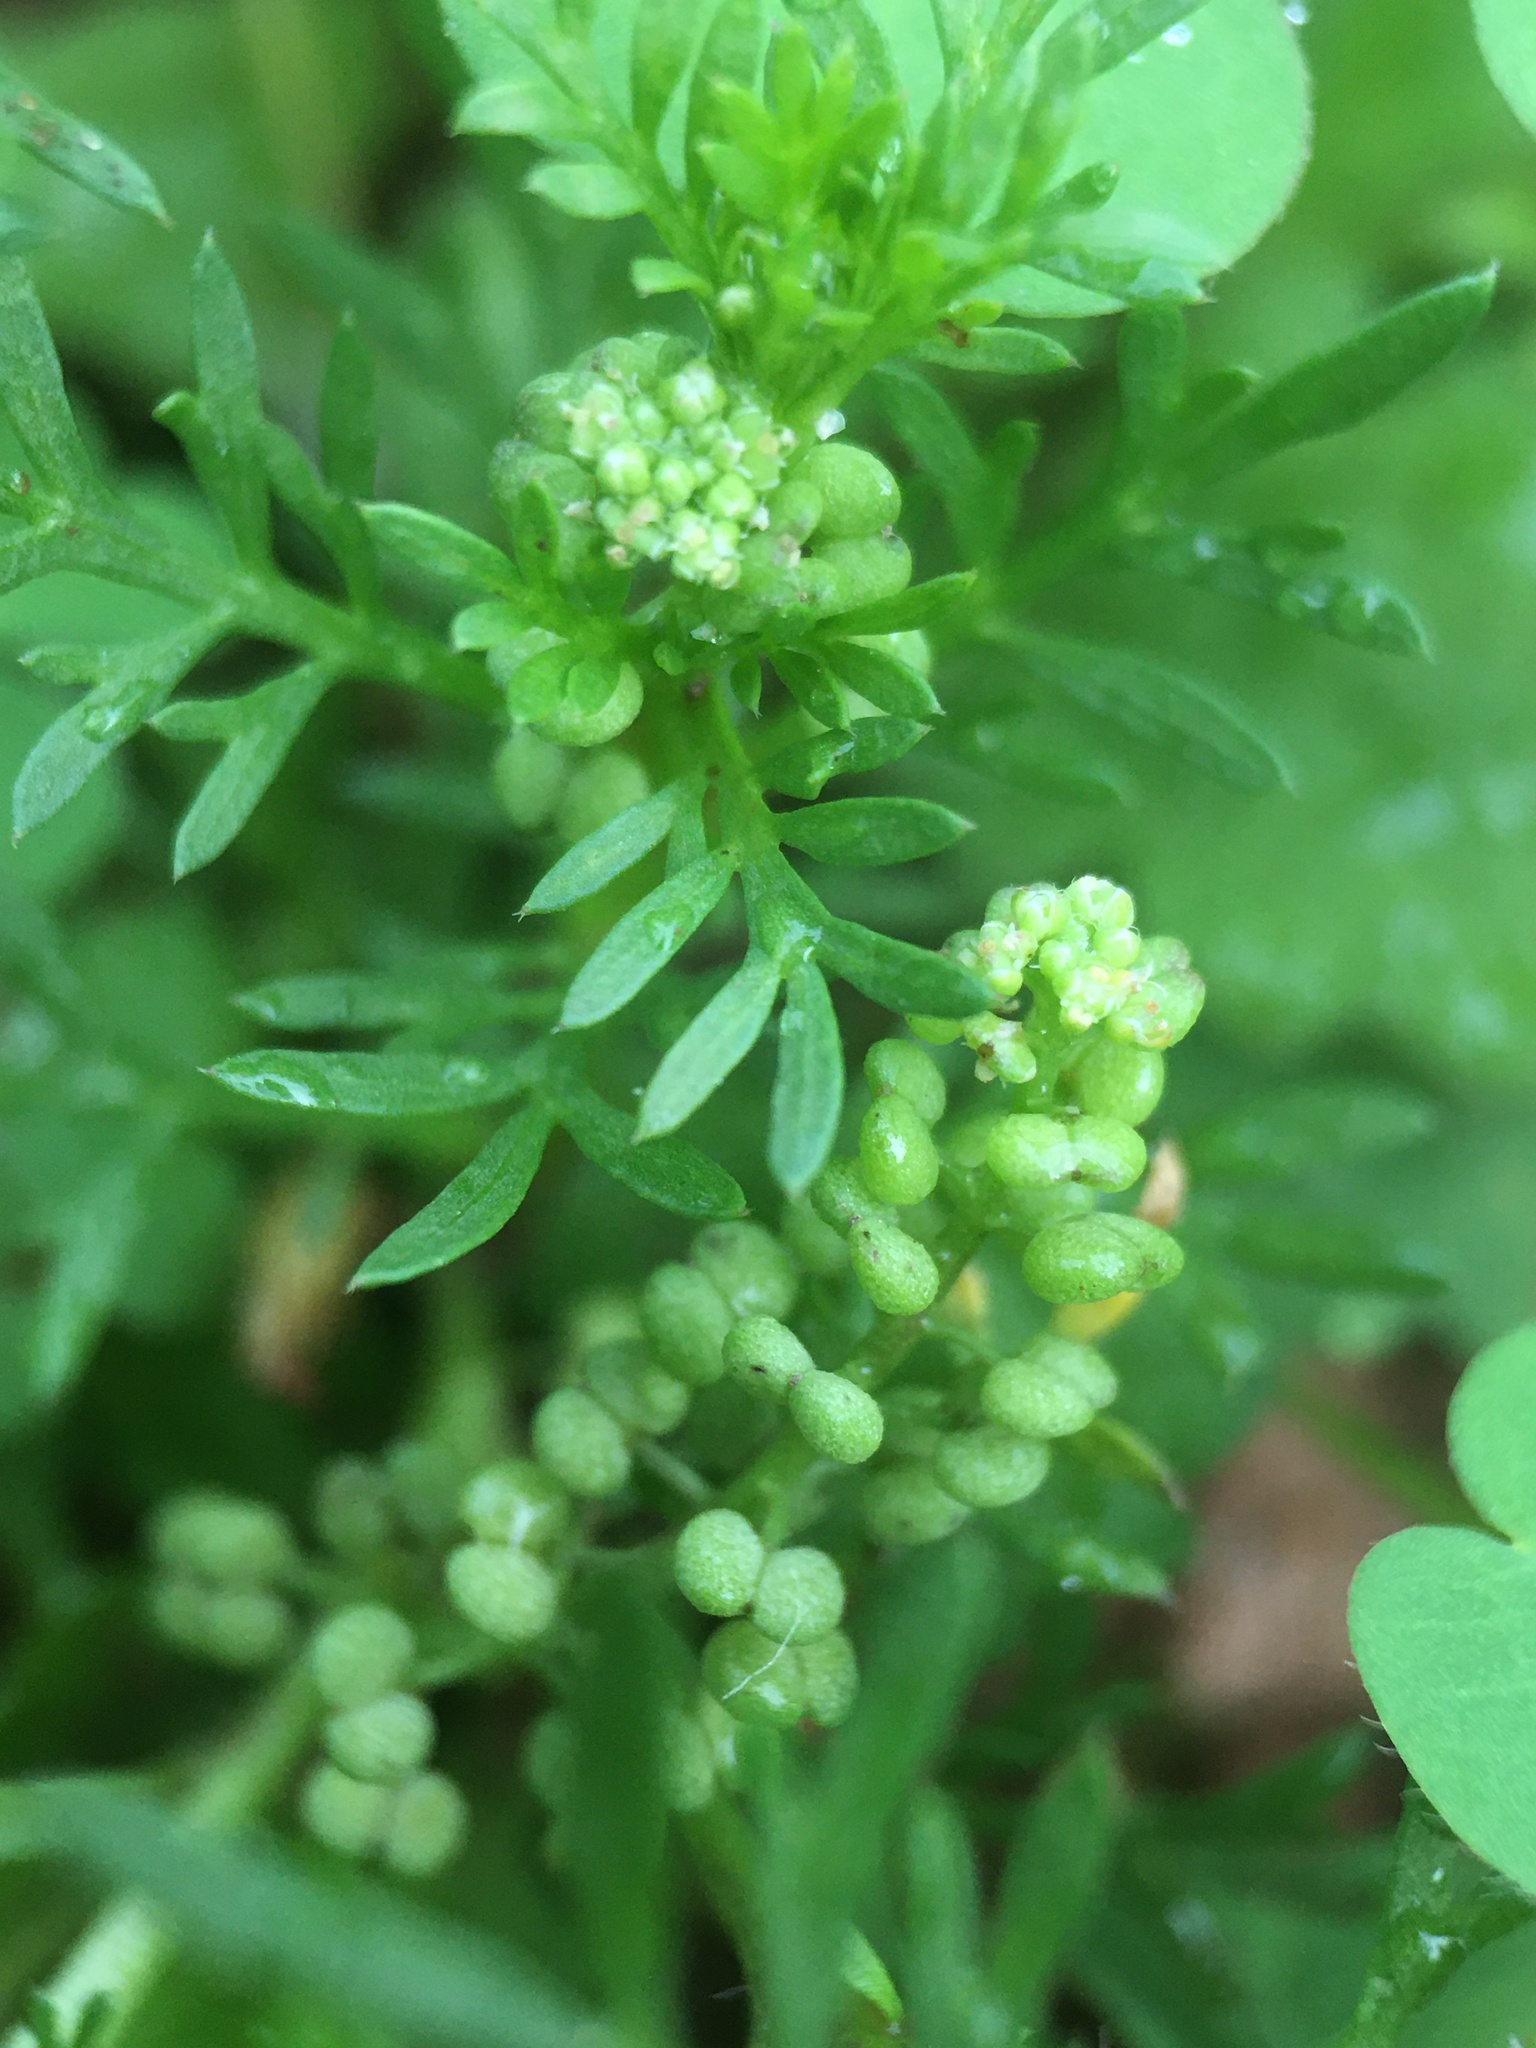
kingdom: Plantae
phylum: Tracheophyta
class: Magnoliopsida
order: Brassicales
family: Brassicaceae
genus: Lepidium
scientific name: Lepidium didymum
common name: Lesser swinecress
